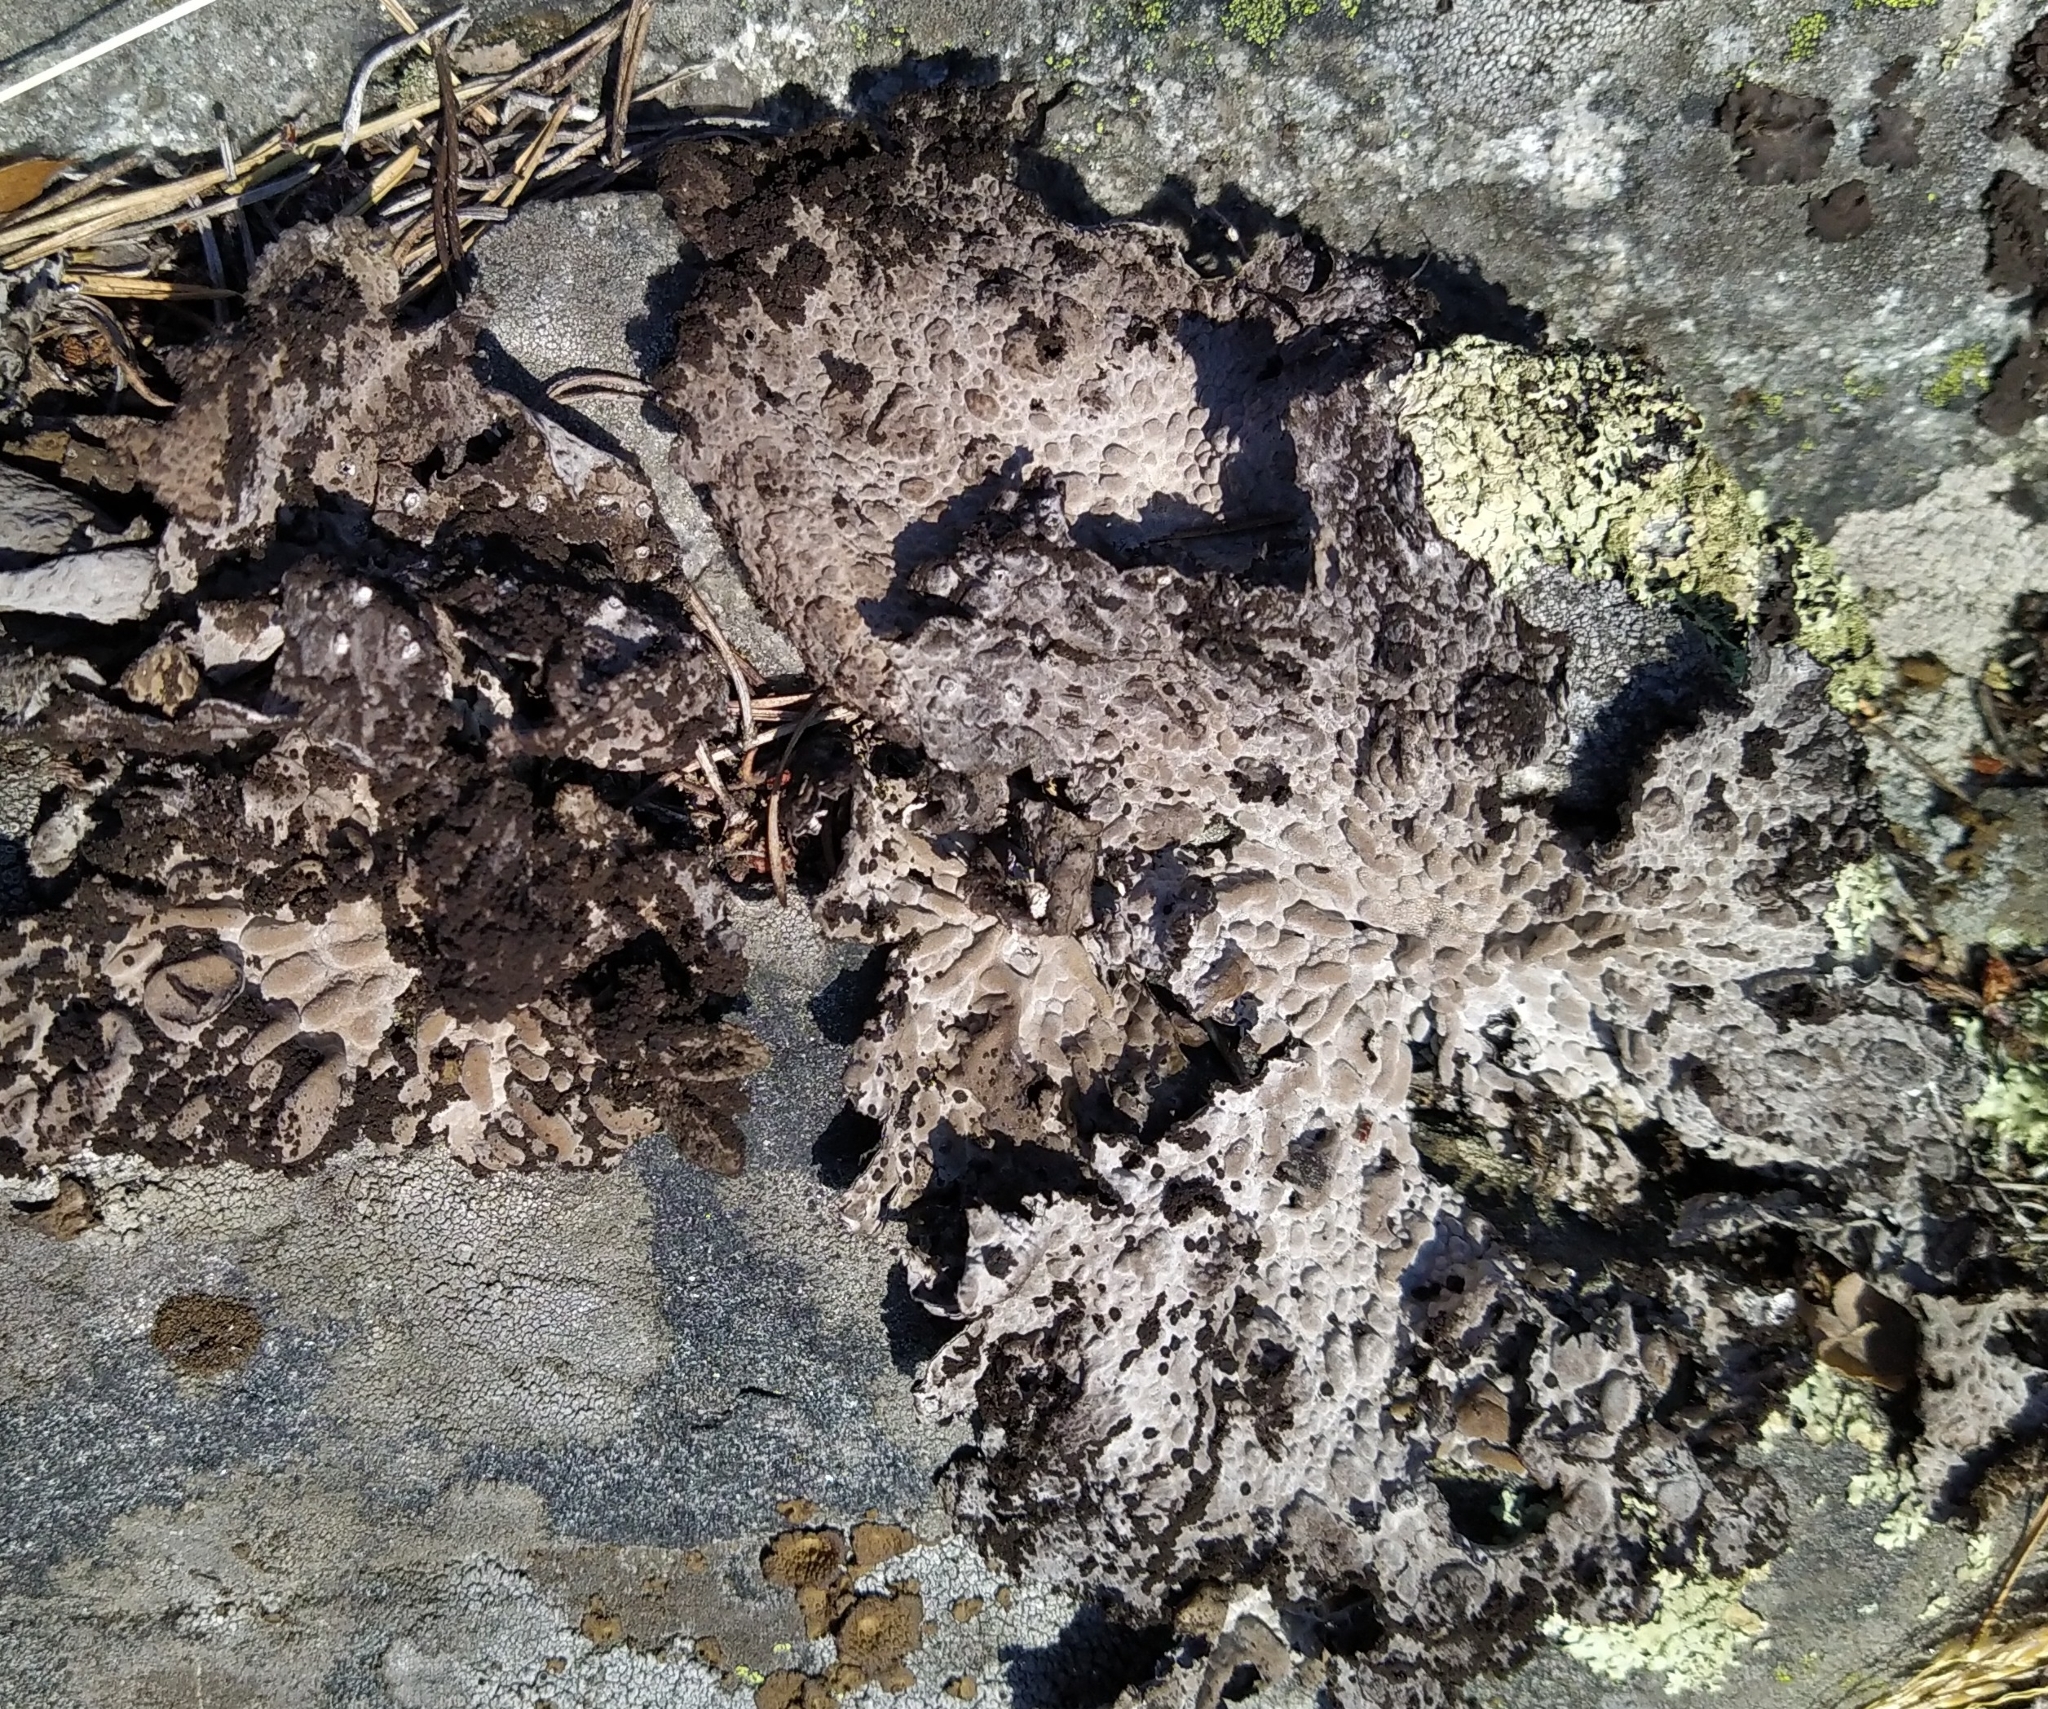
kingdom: Fungi
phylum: Ascomycota
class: Lecanoromycetes
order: Umbilicariales
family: Umbilicariaceae
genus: Lasallia
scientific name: Lasallia pustulata
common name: Blistered toadskin lichen
